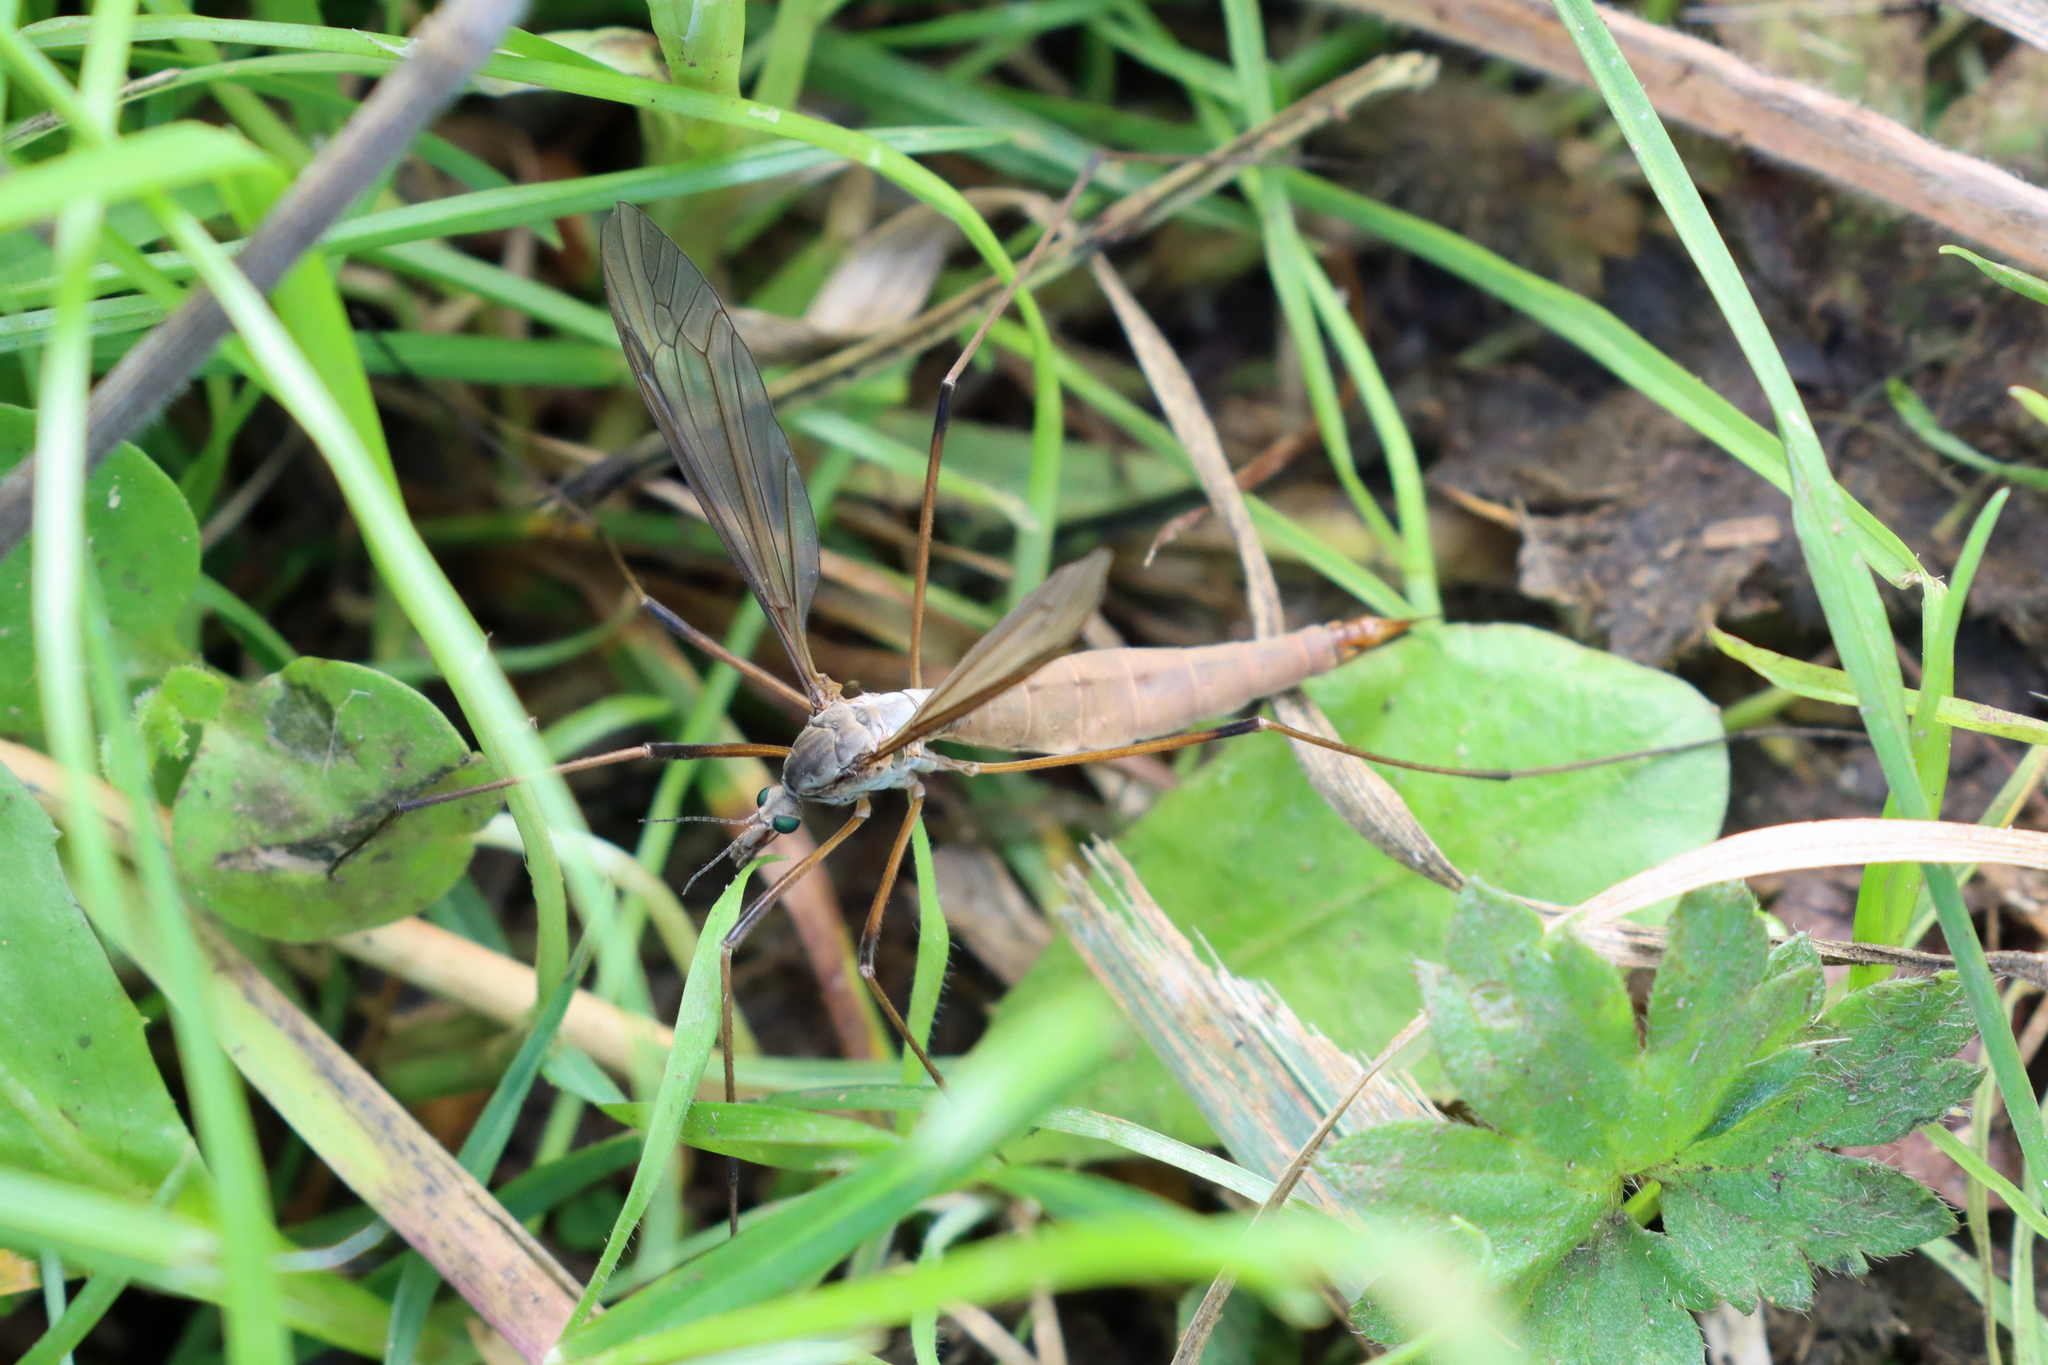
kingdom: Animalia
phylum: Arthropoda
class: Insecta
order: Diptera
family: Tipulidae
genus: Tipula
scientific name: Tipula paludosa
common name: European cranefly
